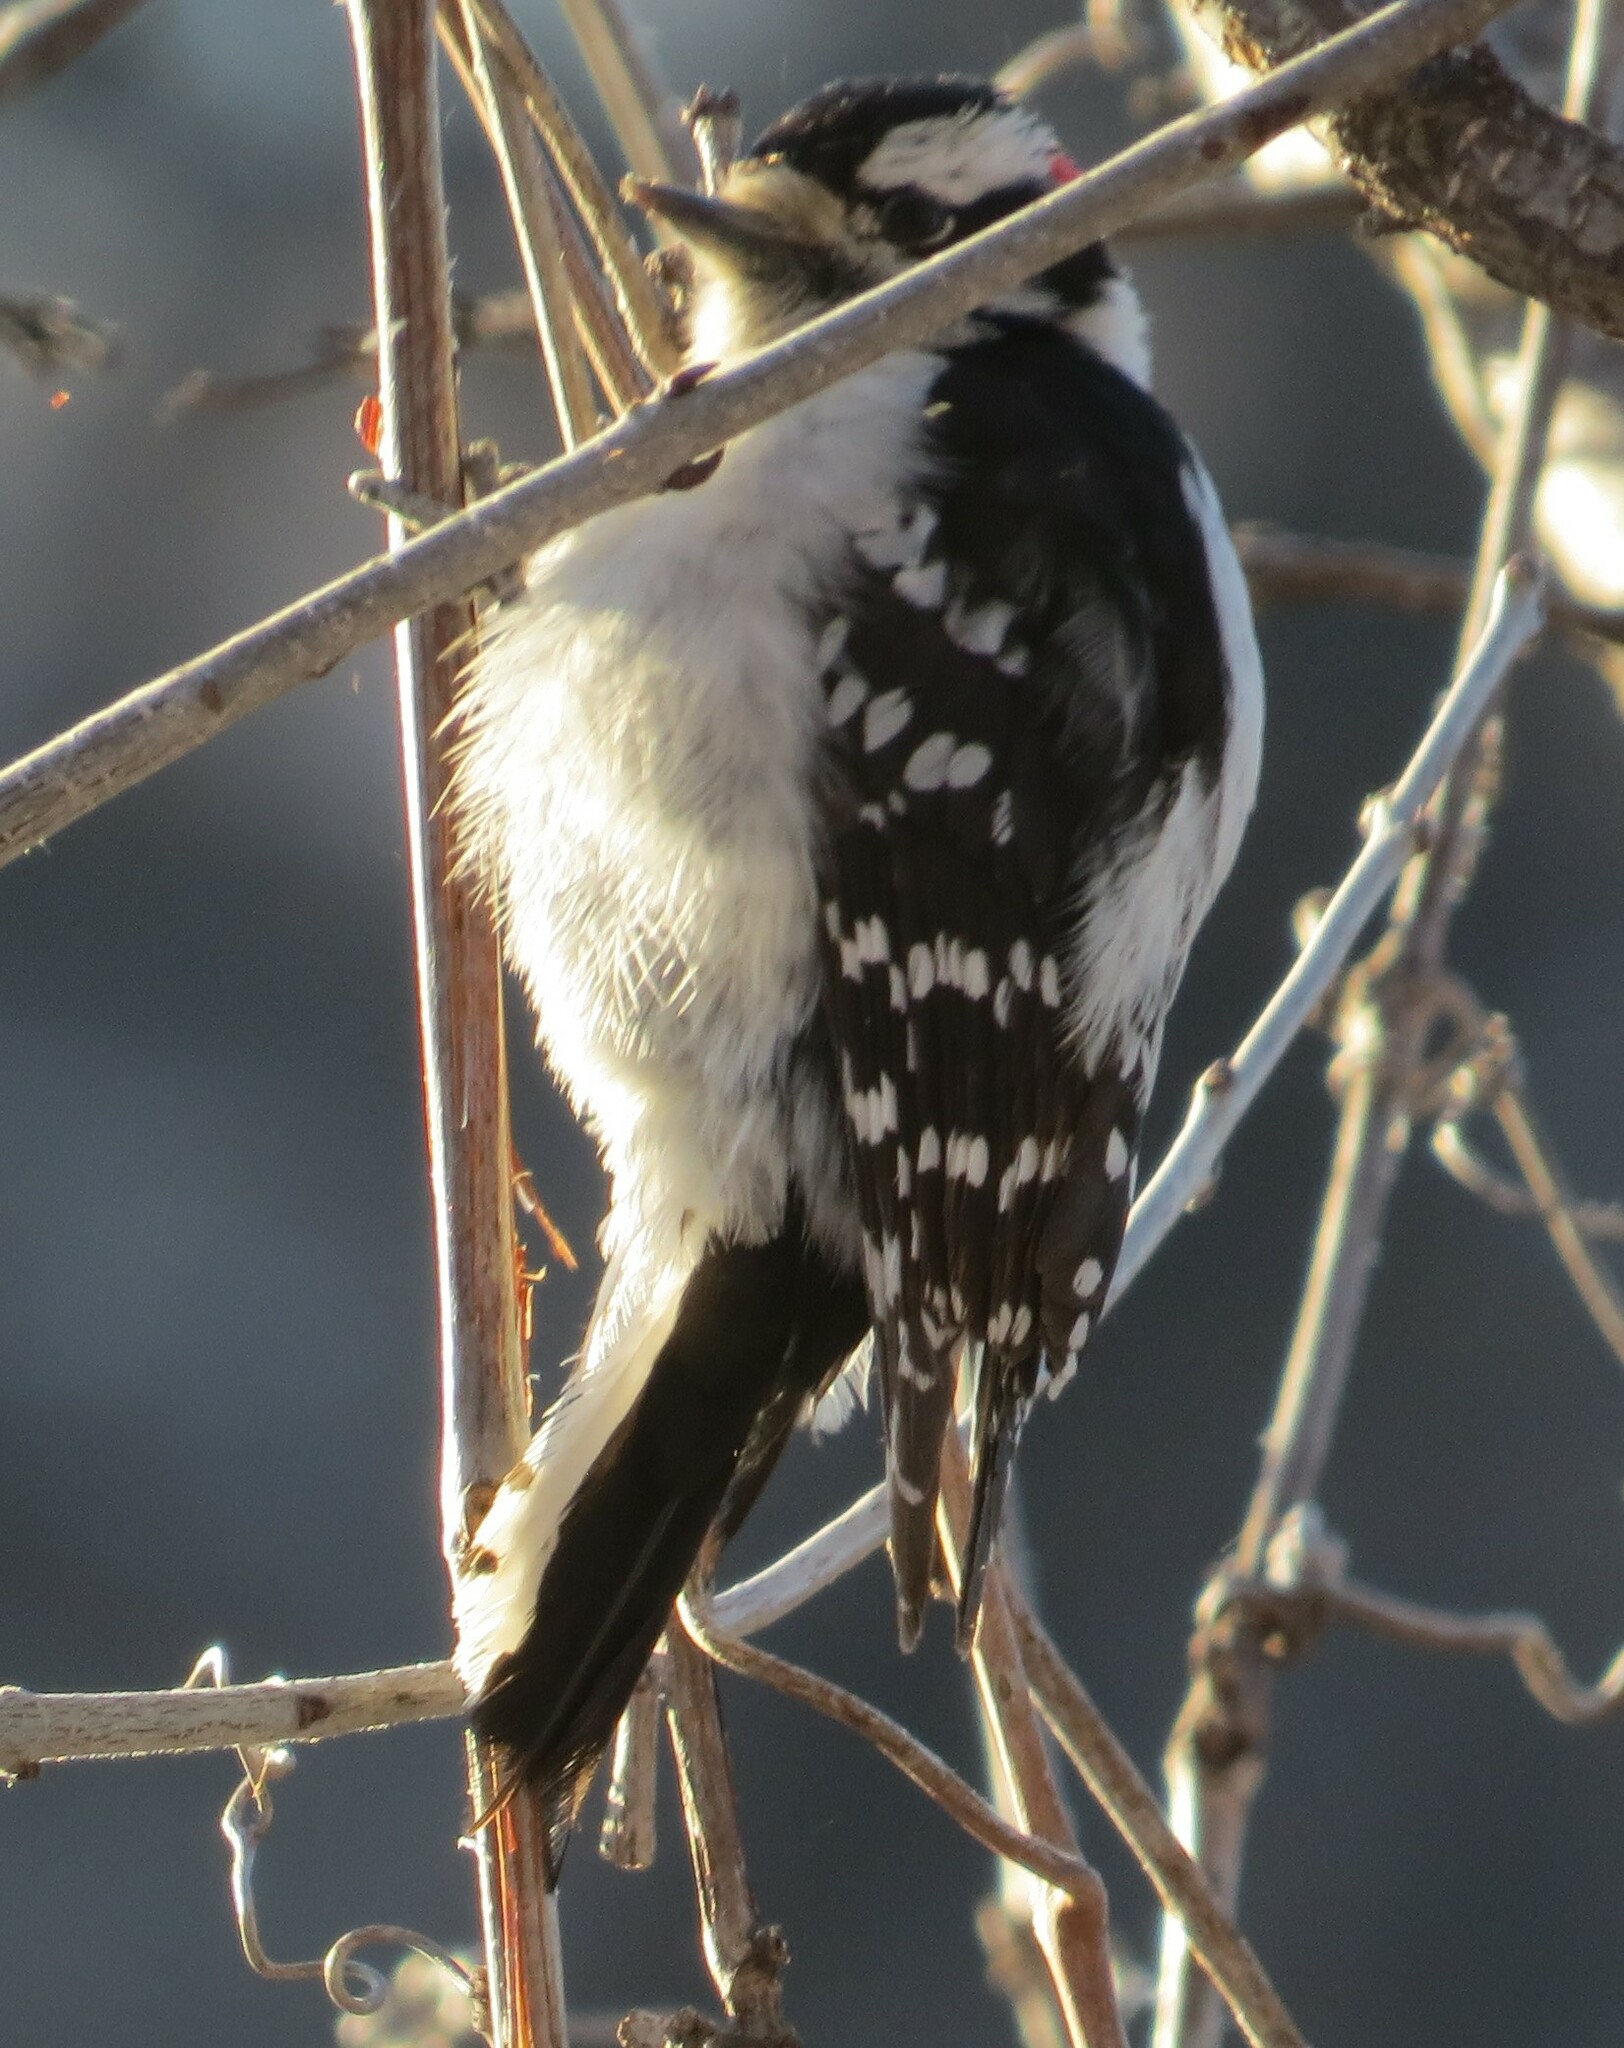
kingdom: Animalia
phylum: Chordata
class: Aves
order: Piciformes
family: Picidae
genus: Dryobates
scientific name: Dryobates pubescens
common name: Downy woodpecker
